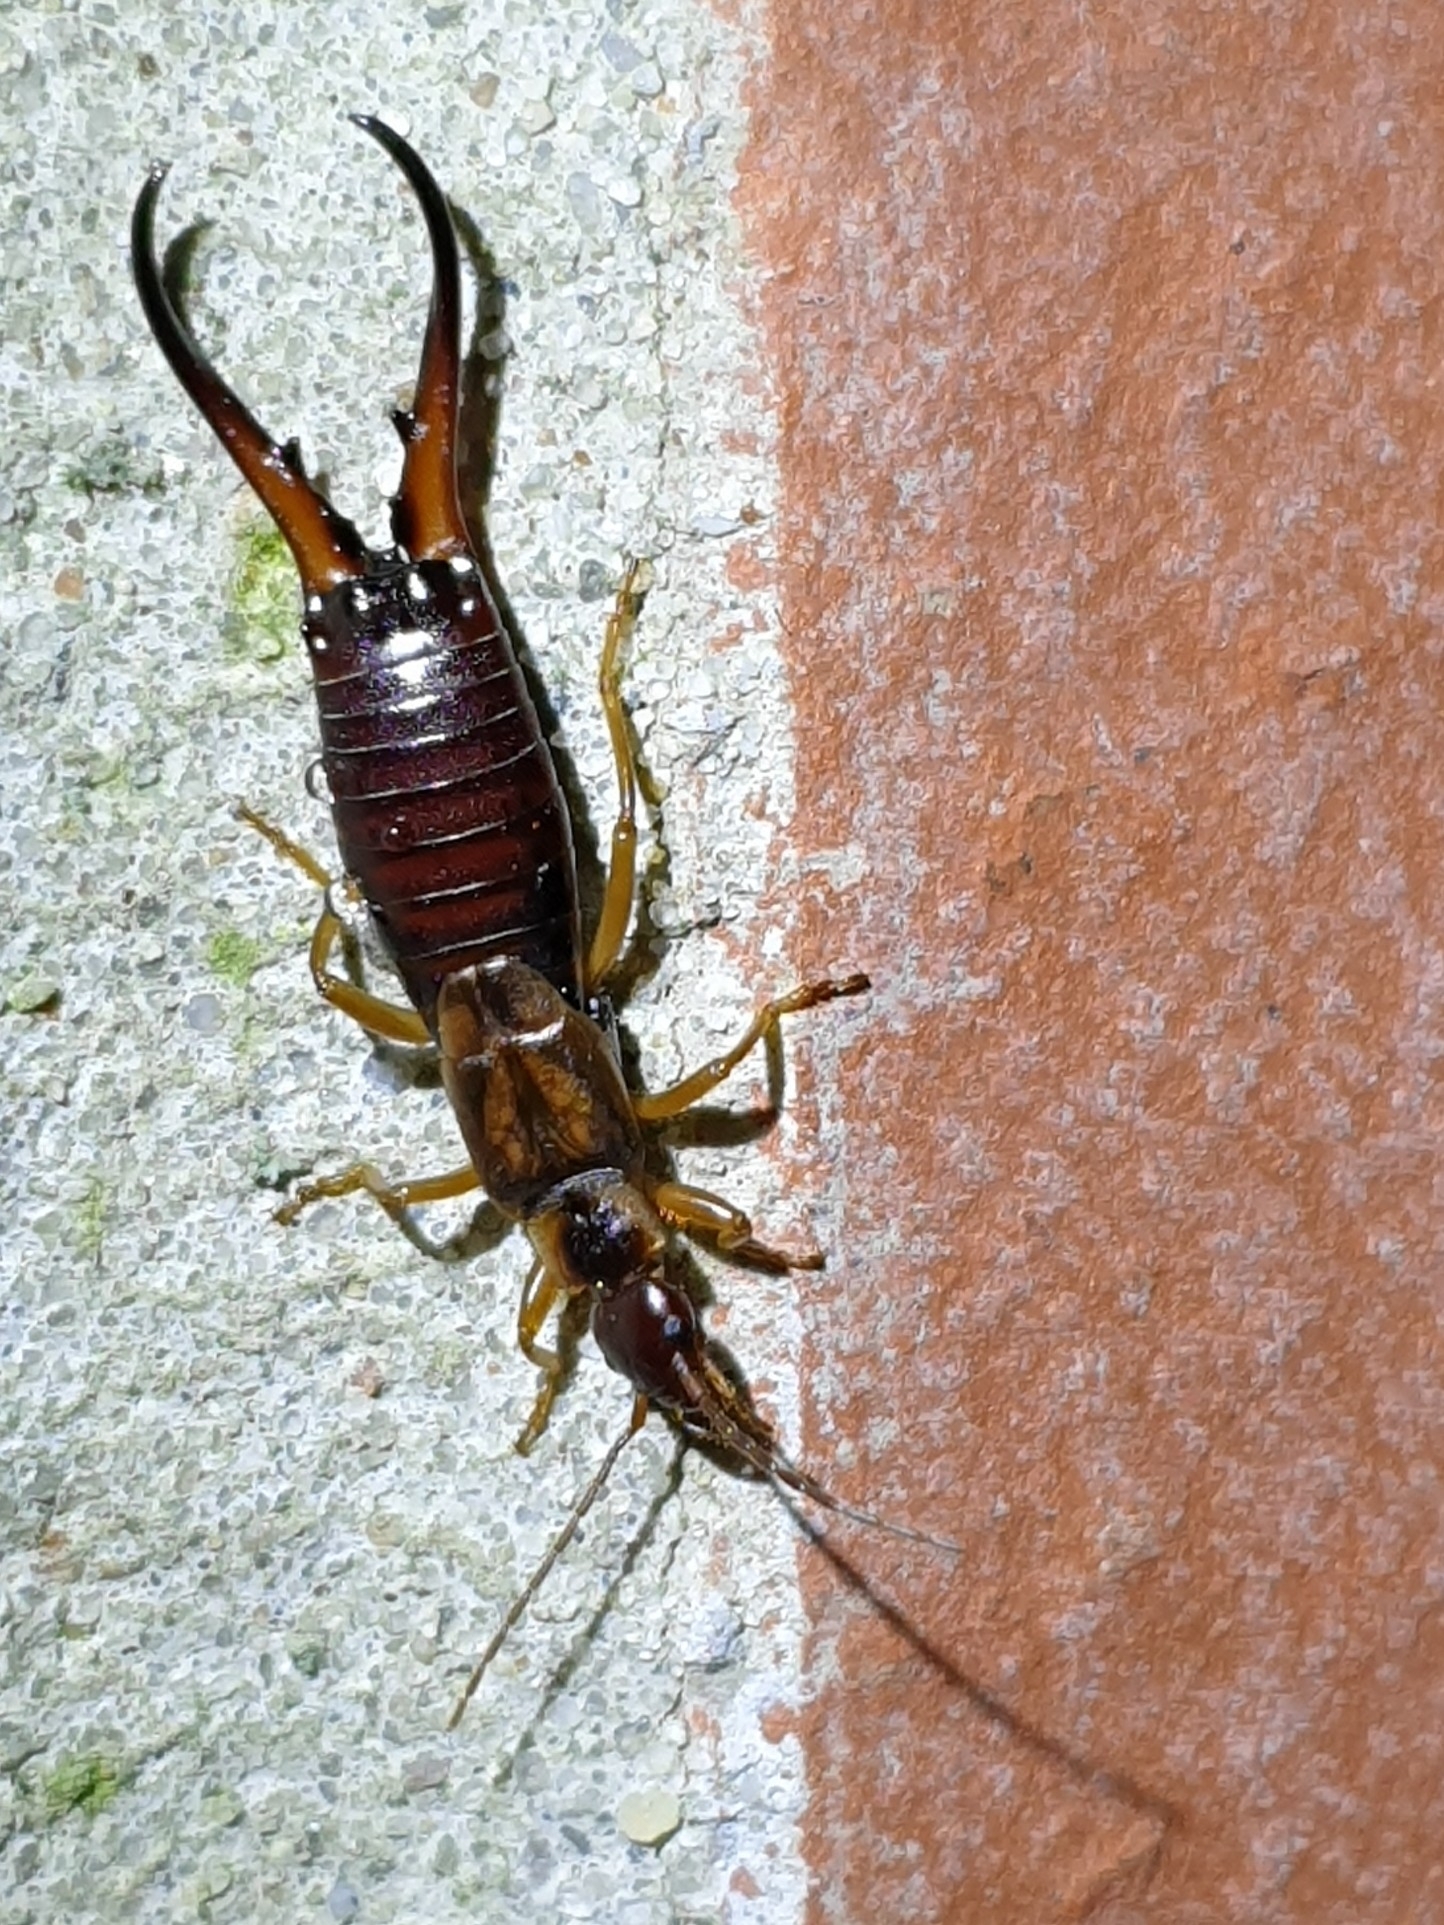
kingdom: Animalia
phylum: Arthropoda
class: Insecta
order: Dermaptera
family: Forficulidae
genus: Forficula
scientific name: Forficula auricularia
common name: European earwig
